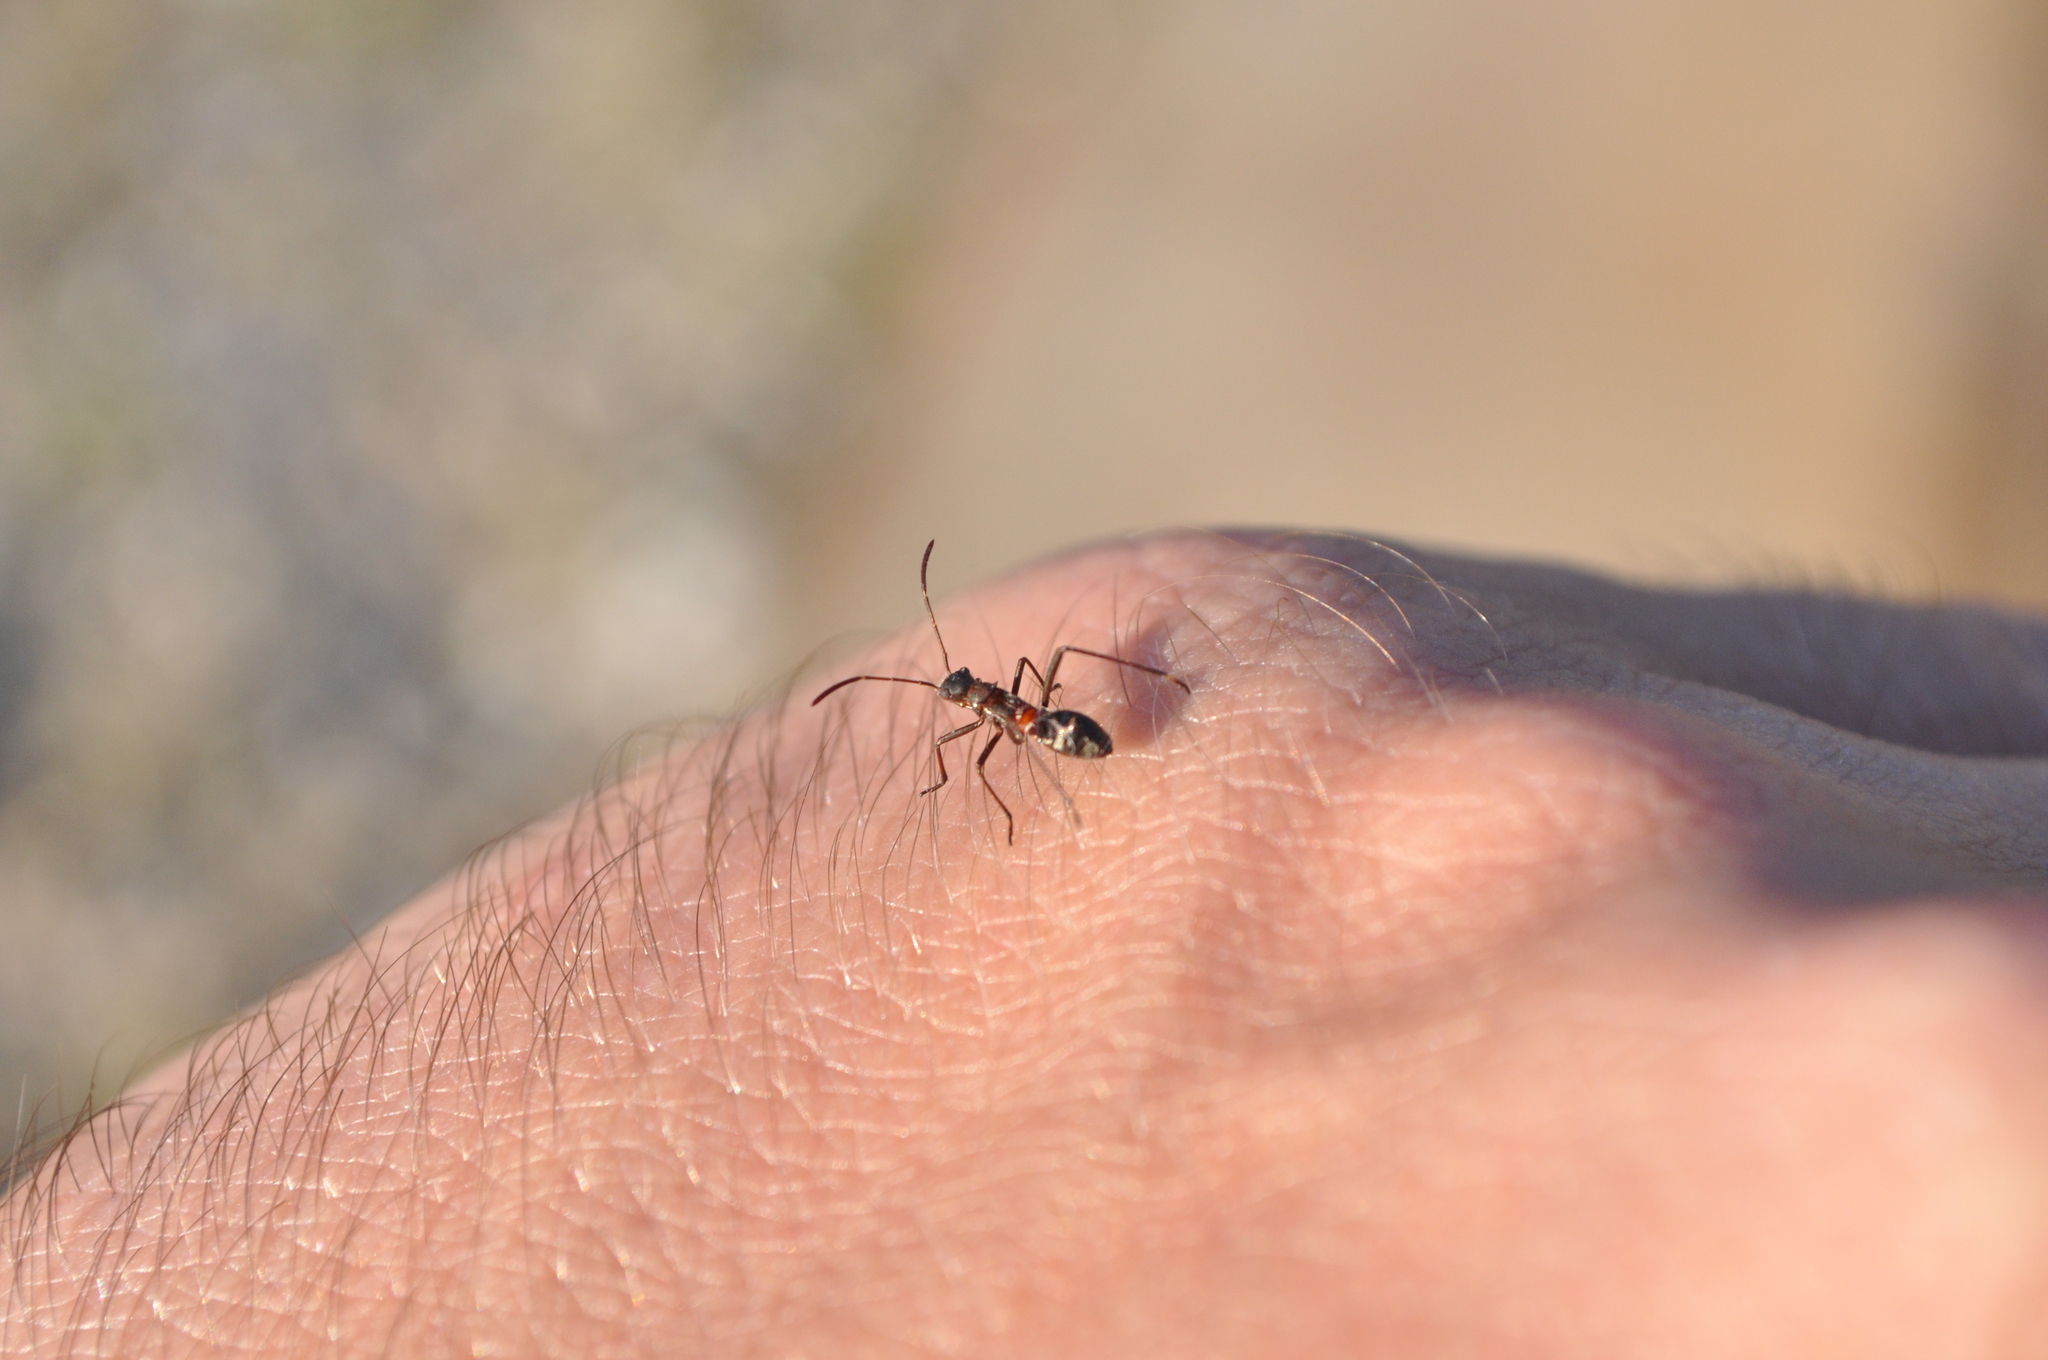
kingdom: Animalia
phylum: Arthropoda
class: Insecta
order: Hemiptera
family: Alydidae
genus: Alydus
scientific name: Alydus calcaratus
